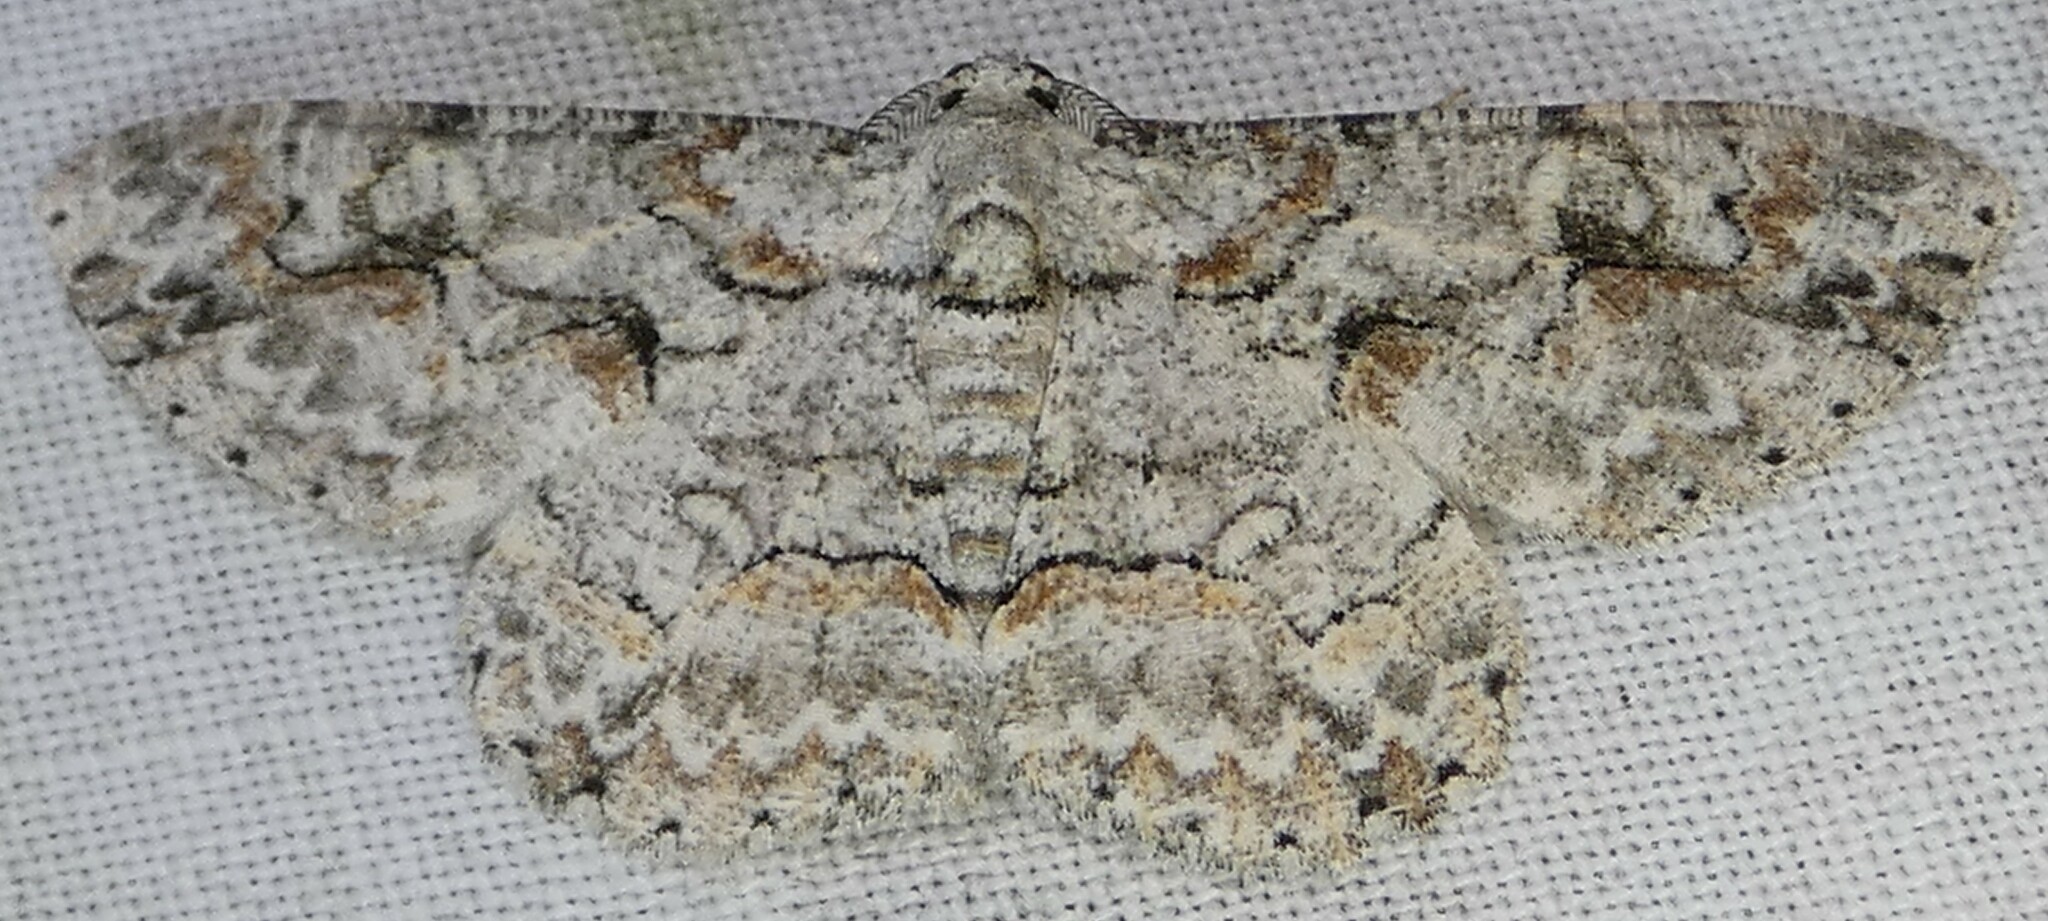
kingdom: Animalia
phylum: Arthropoda
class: Insecta
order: Lepidoptera
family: Geometridae
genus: Iridopsis
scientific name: Iridopsis defectaria
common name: Brown-shaded gray
